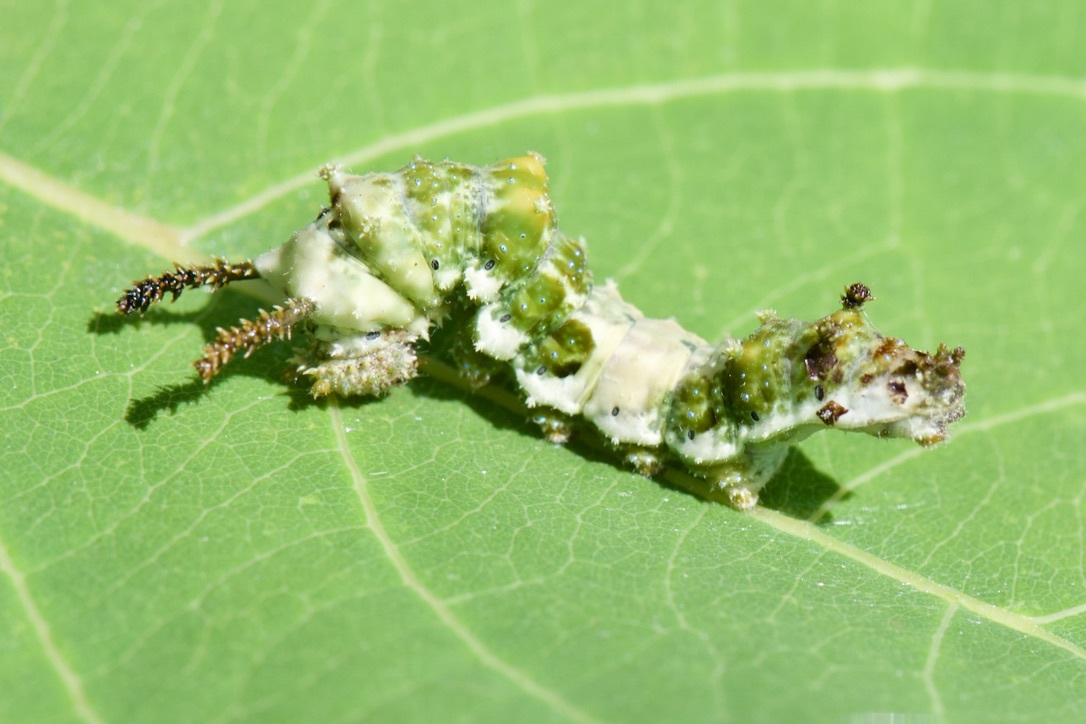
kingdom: Animalia
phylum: Arthropoda
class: Insecta
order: Lepidoptera
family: Nymphalidae
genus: Limenitis
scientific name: Limenitis archippus
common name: Viceroy
